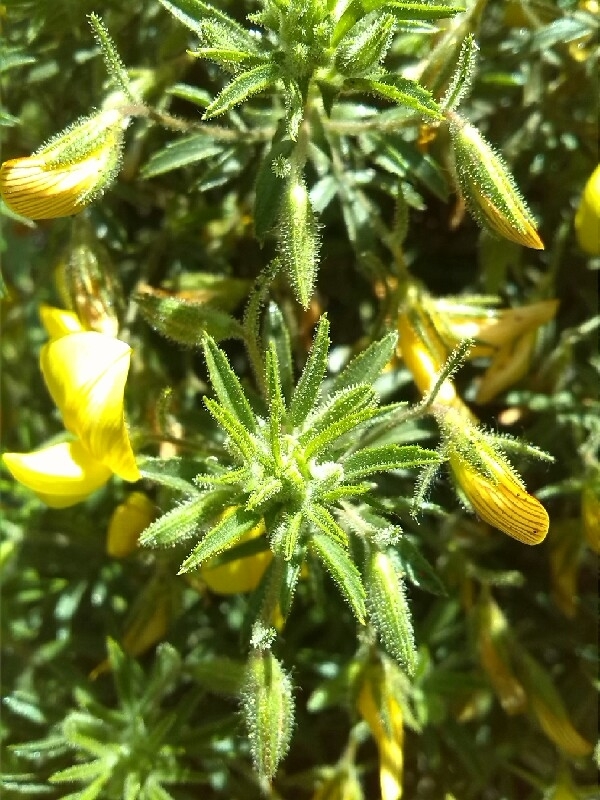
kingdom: Plantae
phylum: Tracheophyta
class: Magnoliopsida
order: Fabales
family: Fabaceae
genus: Ononis
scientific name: Ononis angustissima
